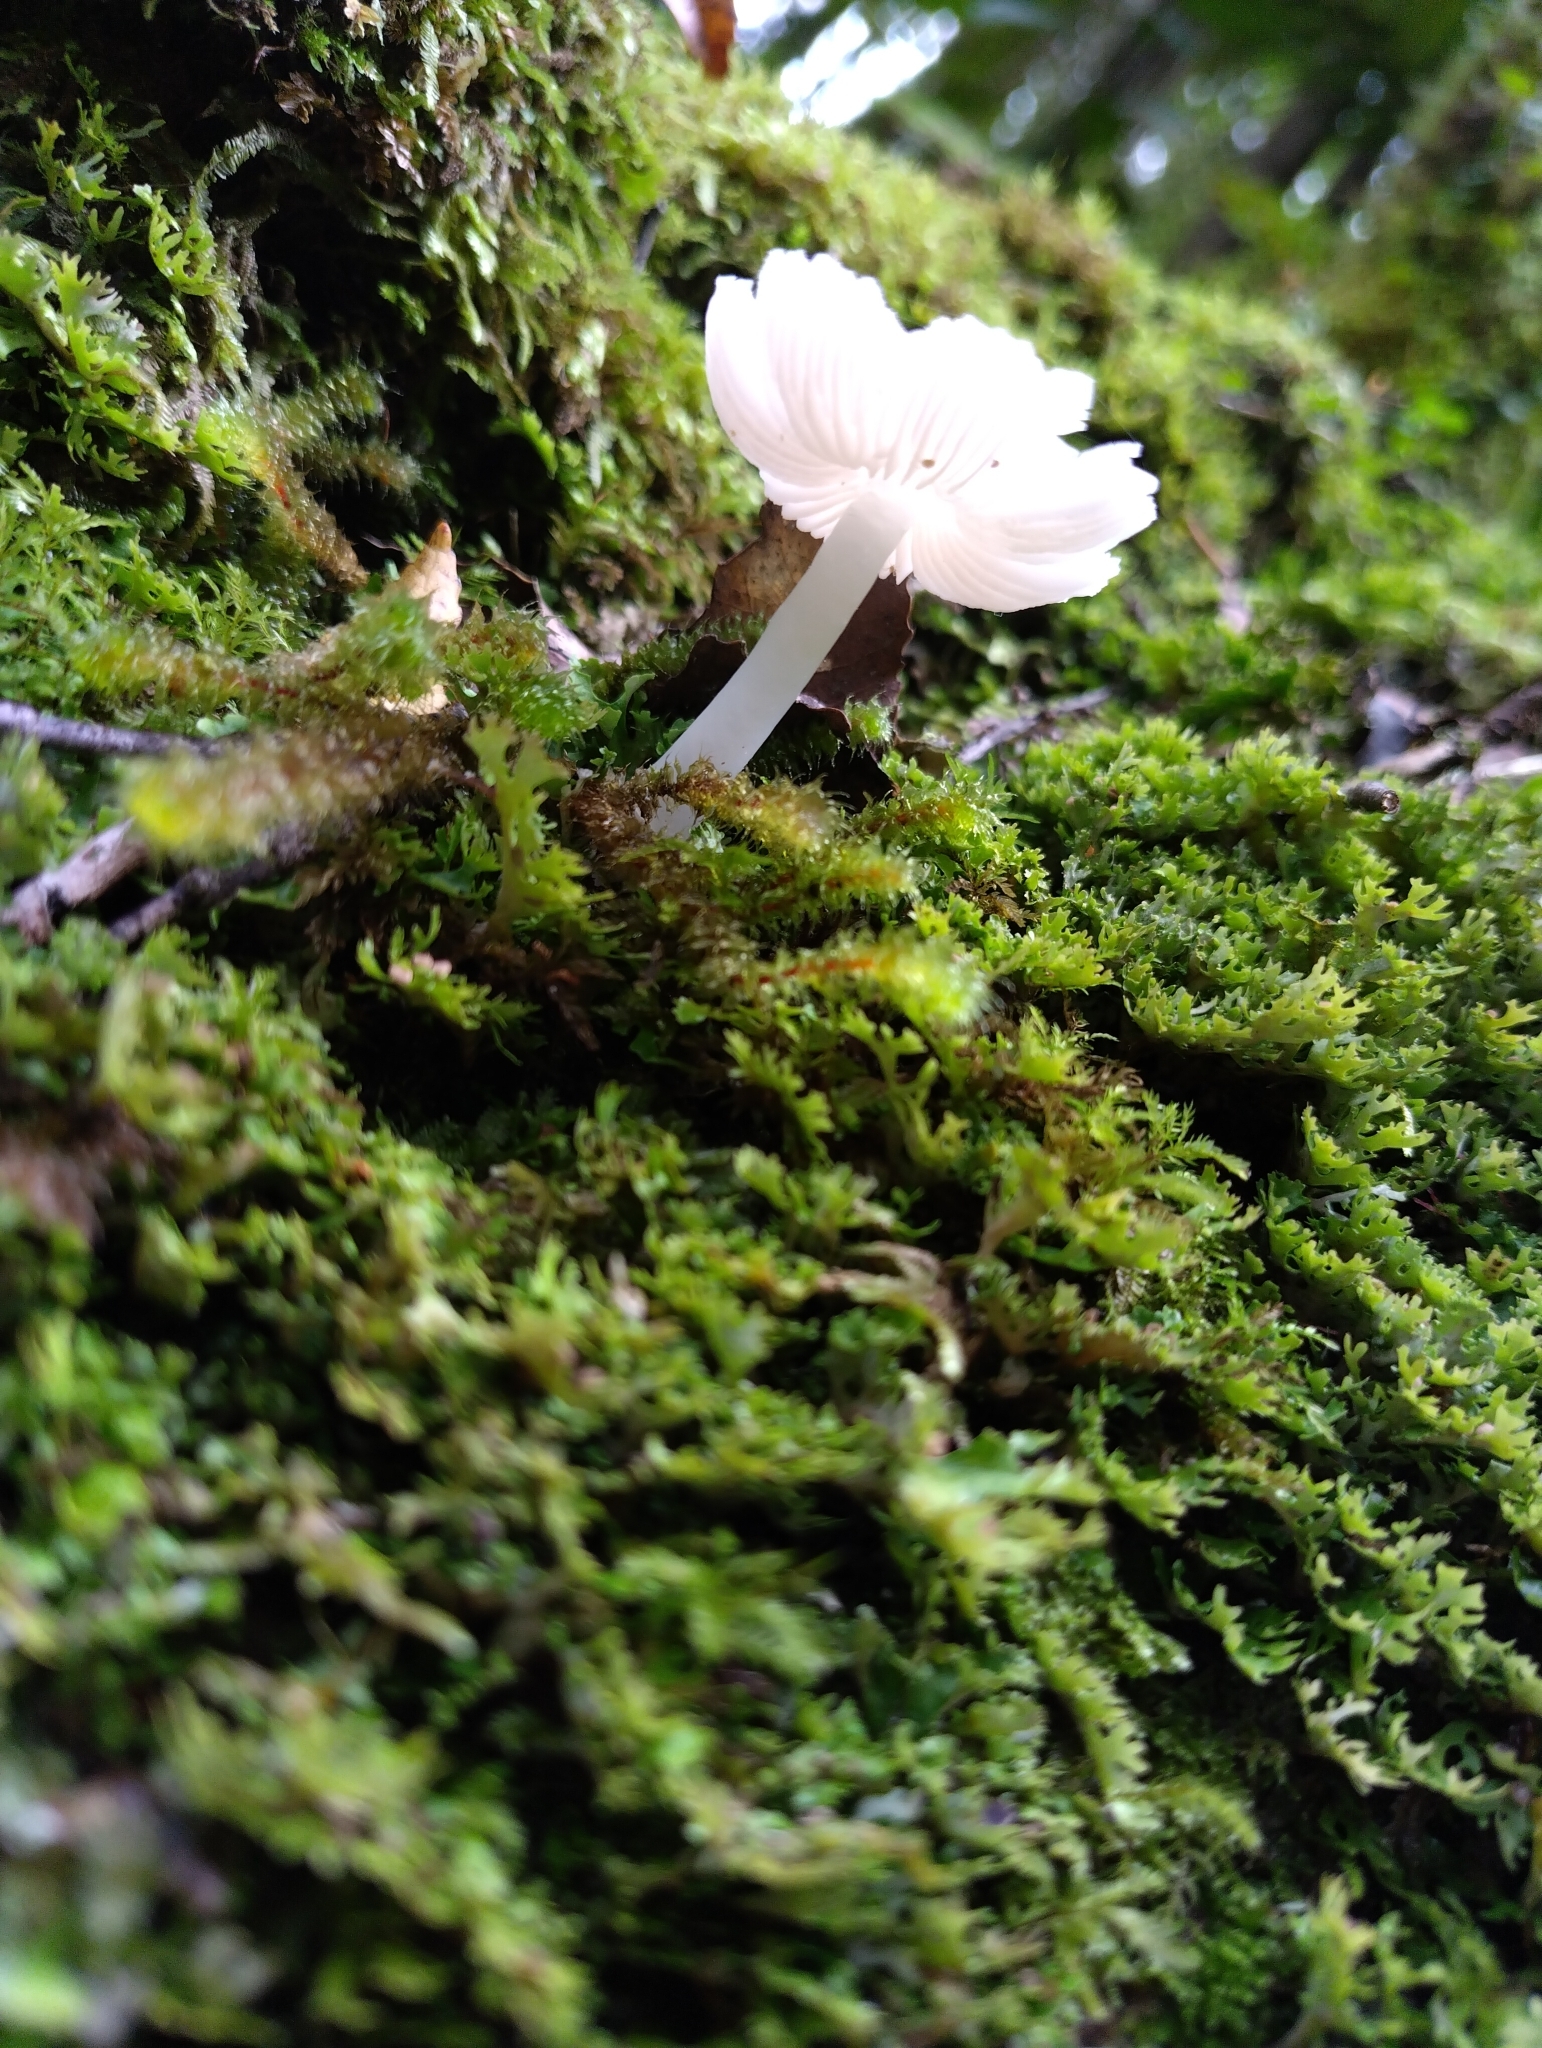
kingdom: Fungi
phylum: Basidiomycota
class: Agaricomycetes
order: Agaricales
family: Hygrophoraceae
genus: Humidicutis
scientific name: Humidicutis
